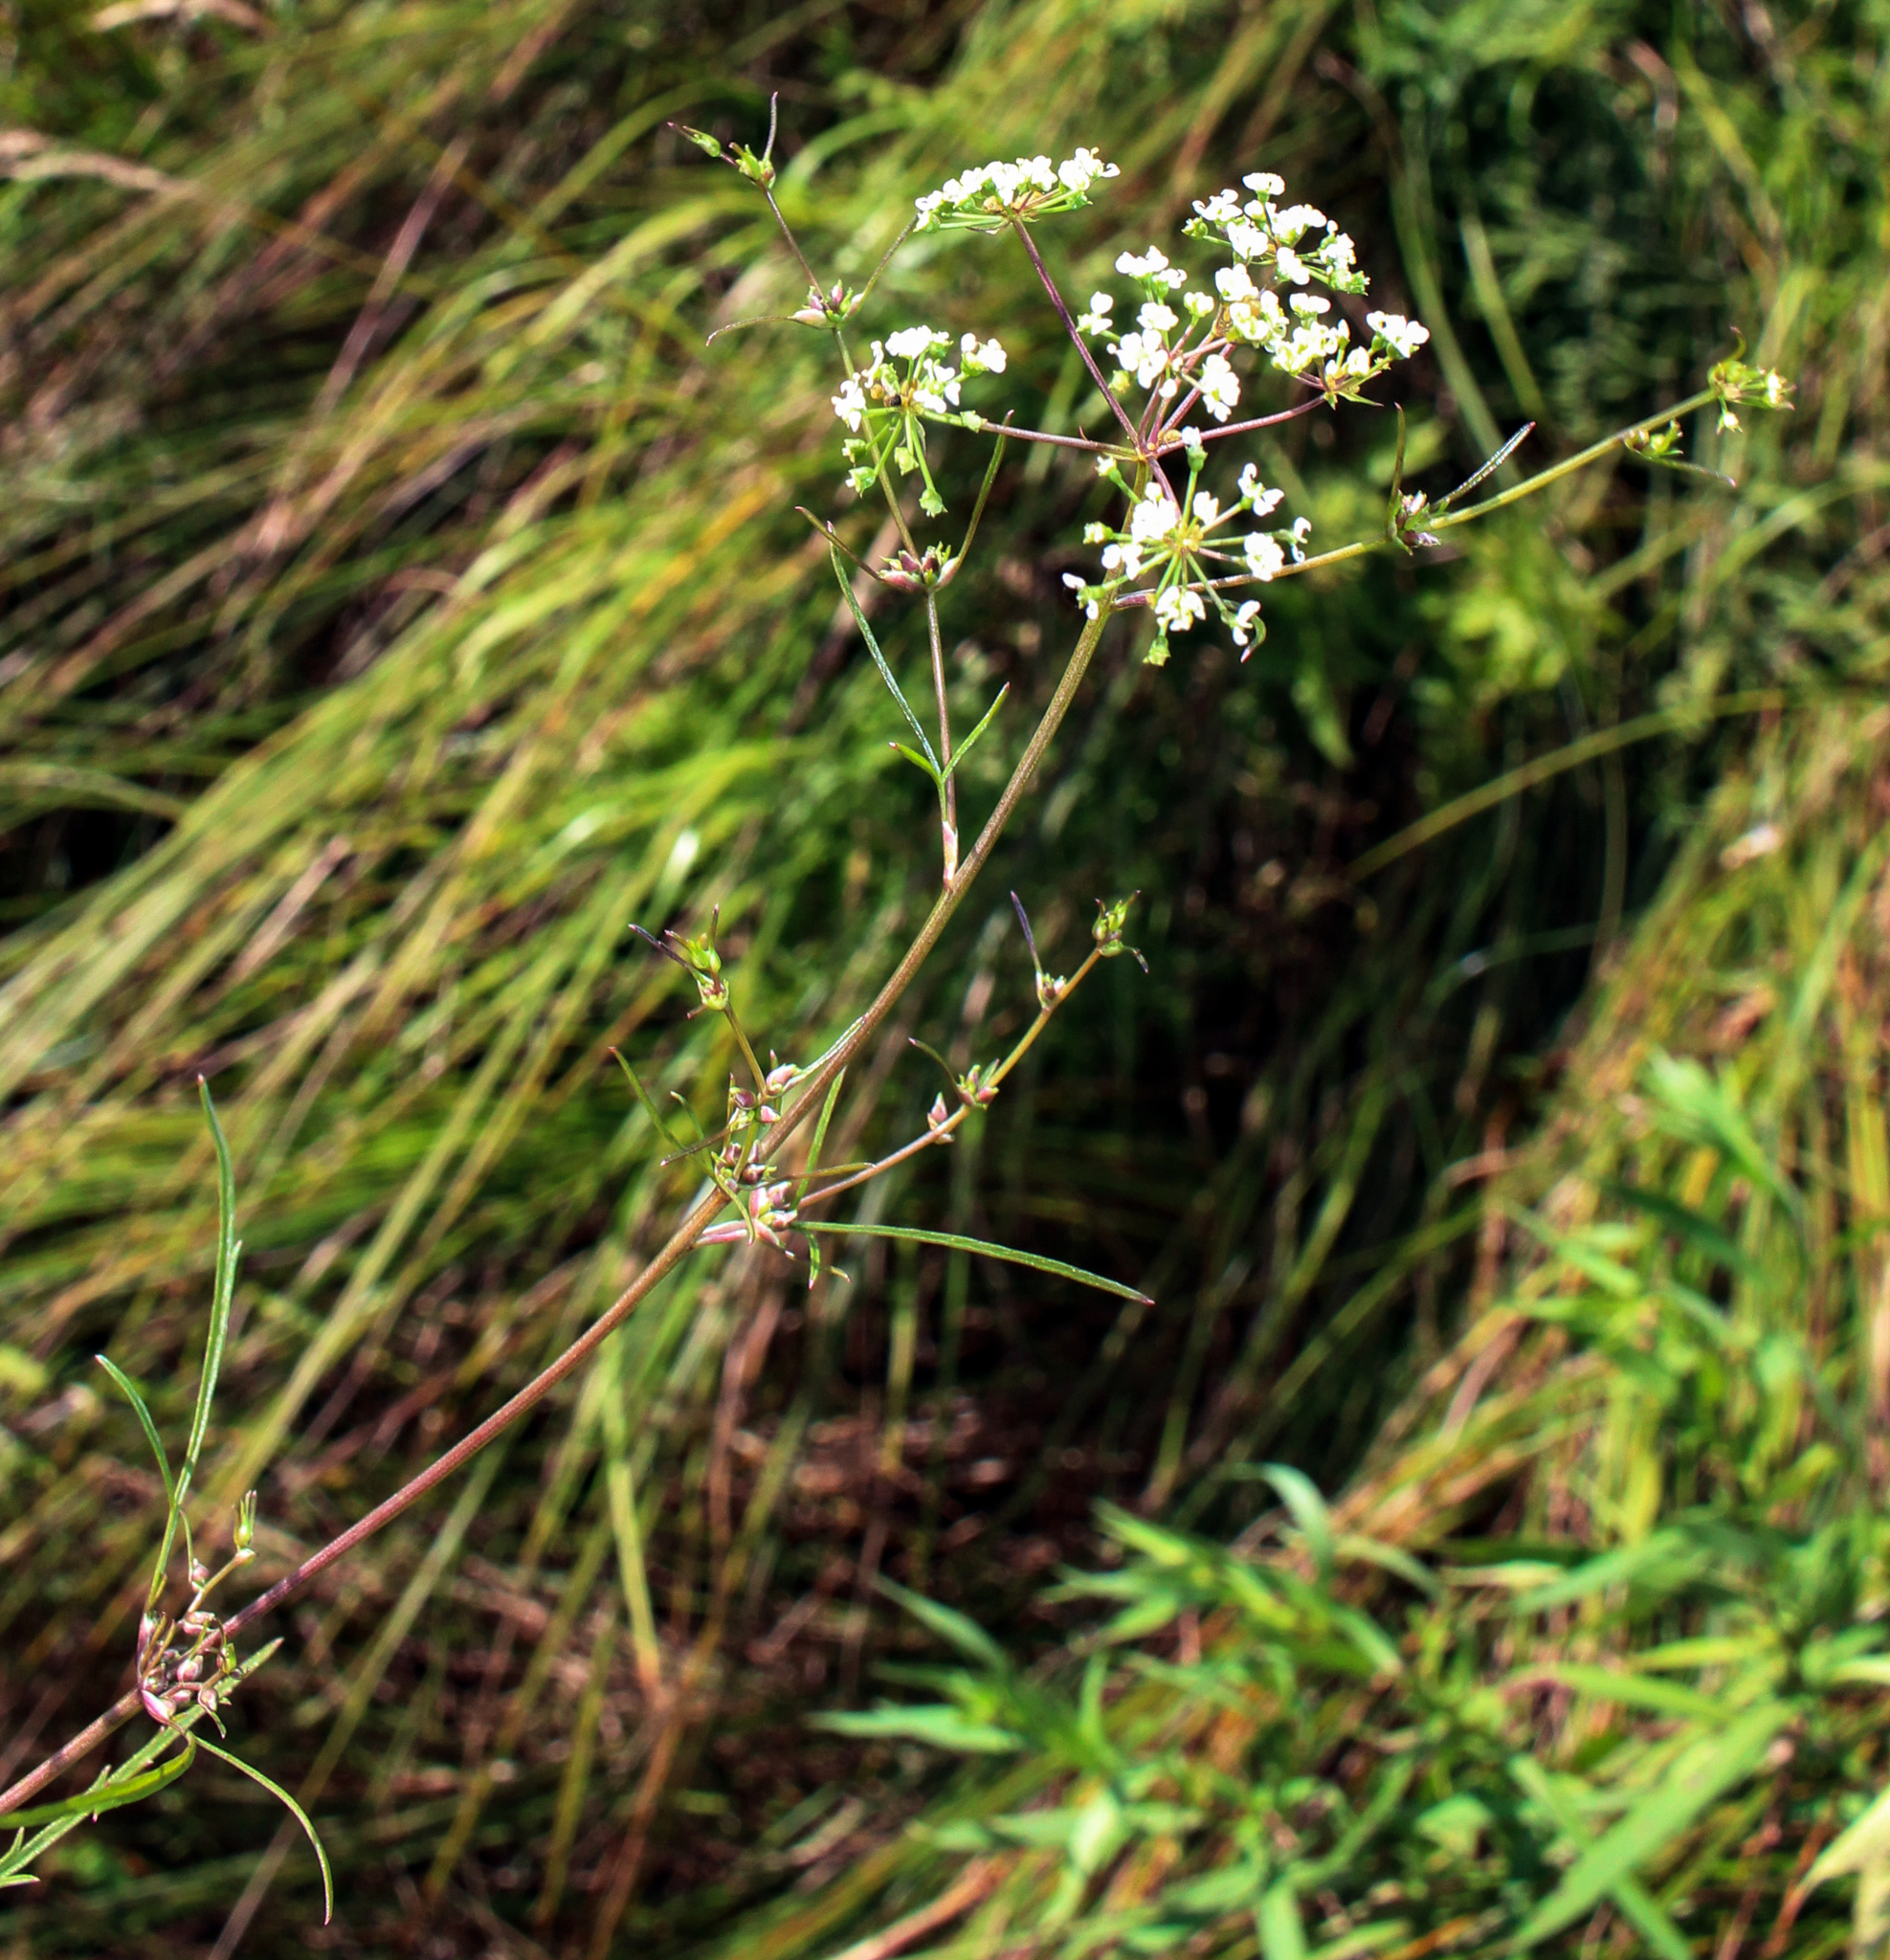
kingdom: Plantae
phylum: Tracheophyta
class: Magnoliopsida
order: Apiales
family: Apiaceae
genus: Cicuta
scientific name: Cicuta bulbifera
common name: Bulb-bearing water-hemlock
